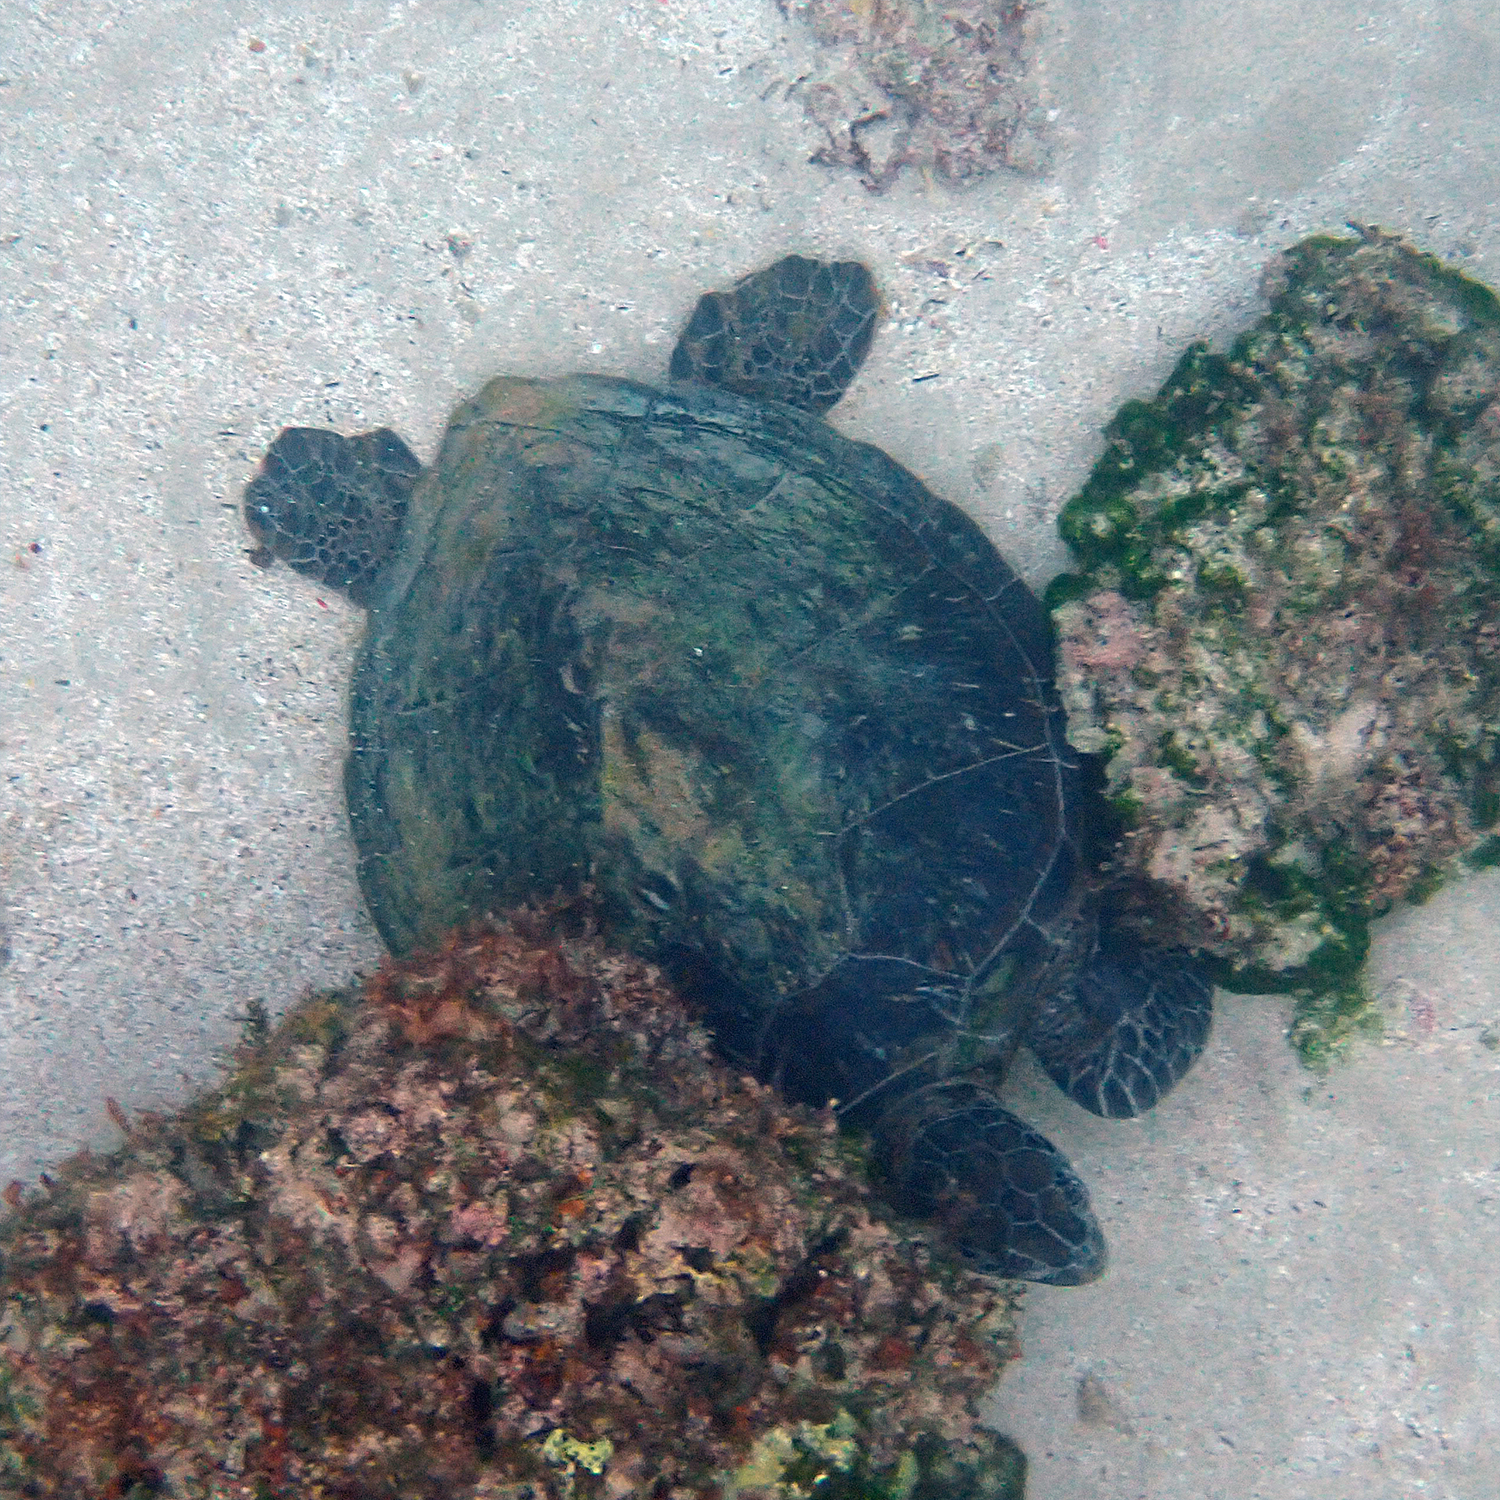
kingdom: Animalia
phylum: Chordata
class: Testudines
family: Cheloniidae
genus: Chelonia
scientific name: Chelonia mydas
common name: Green turtle
